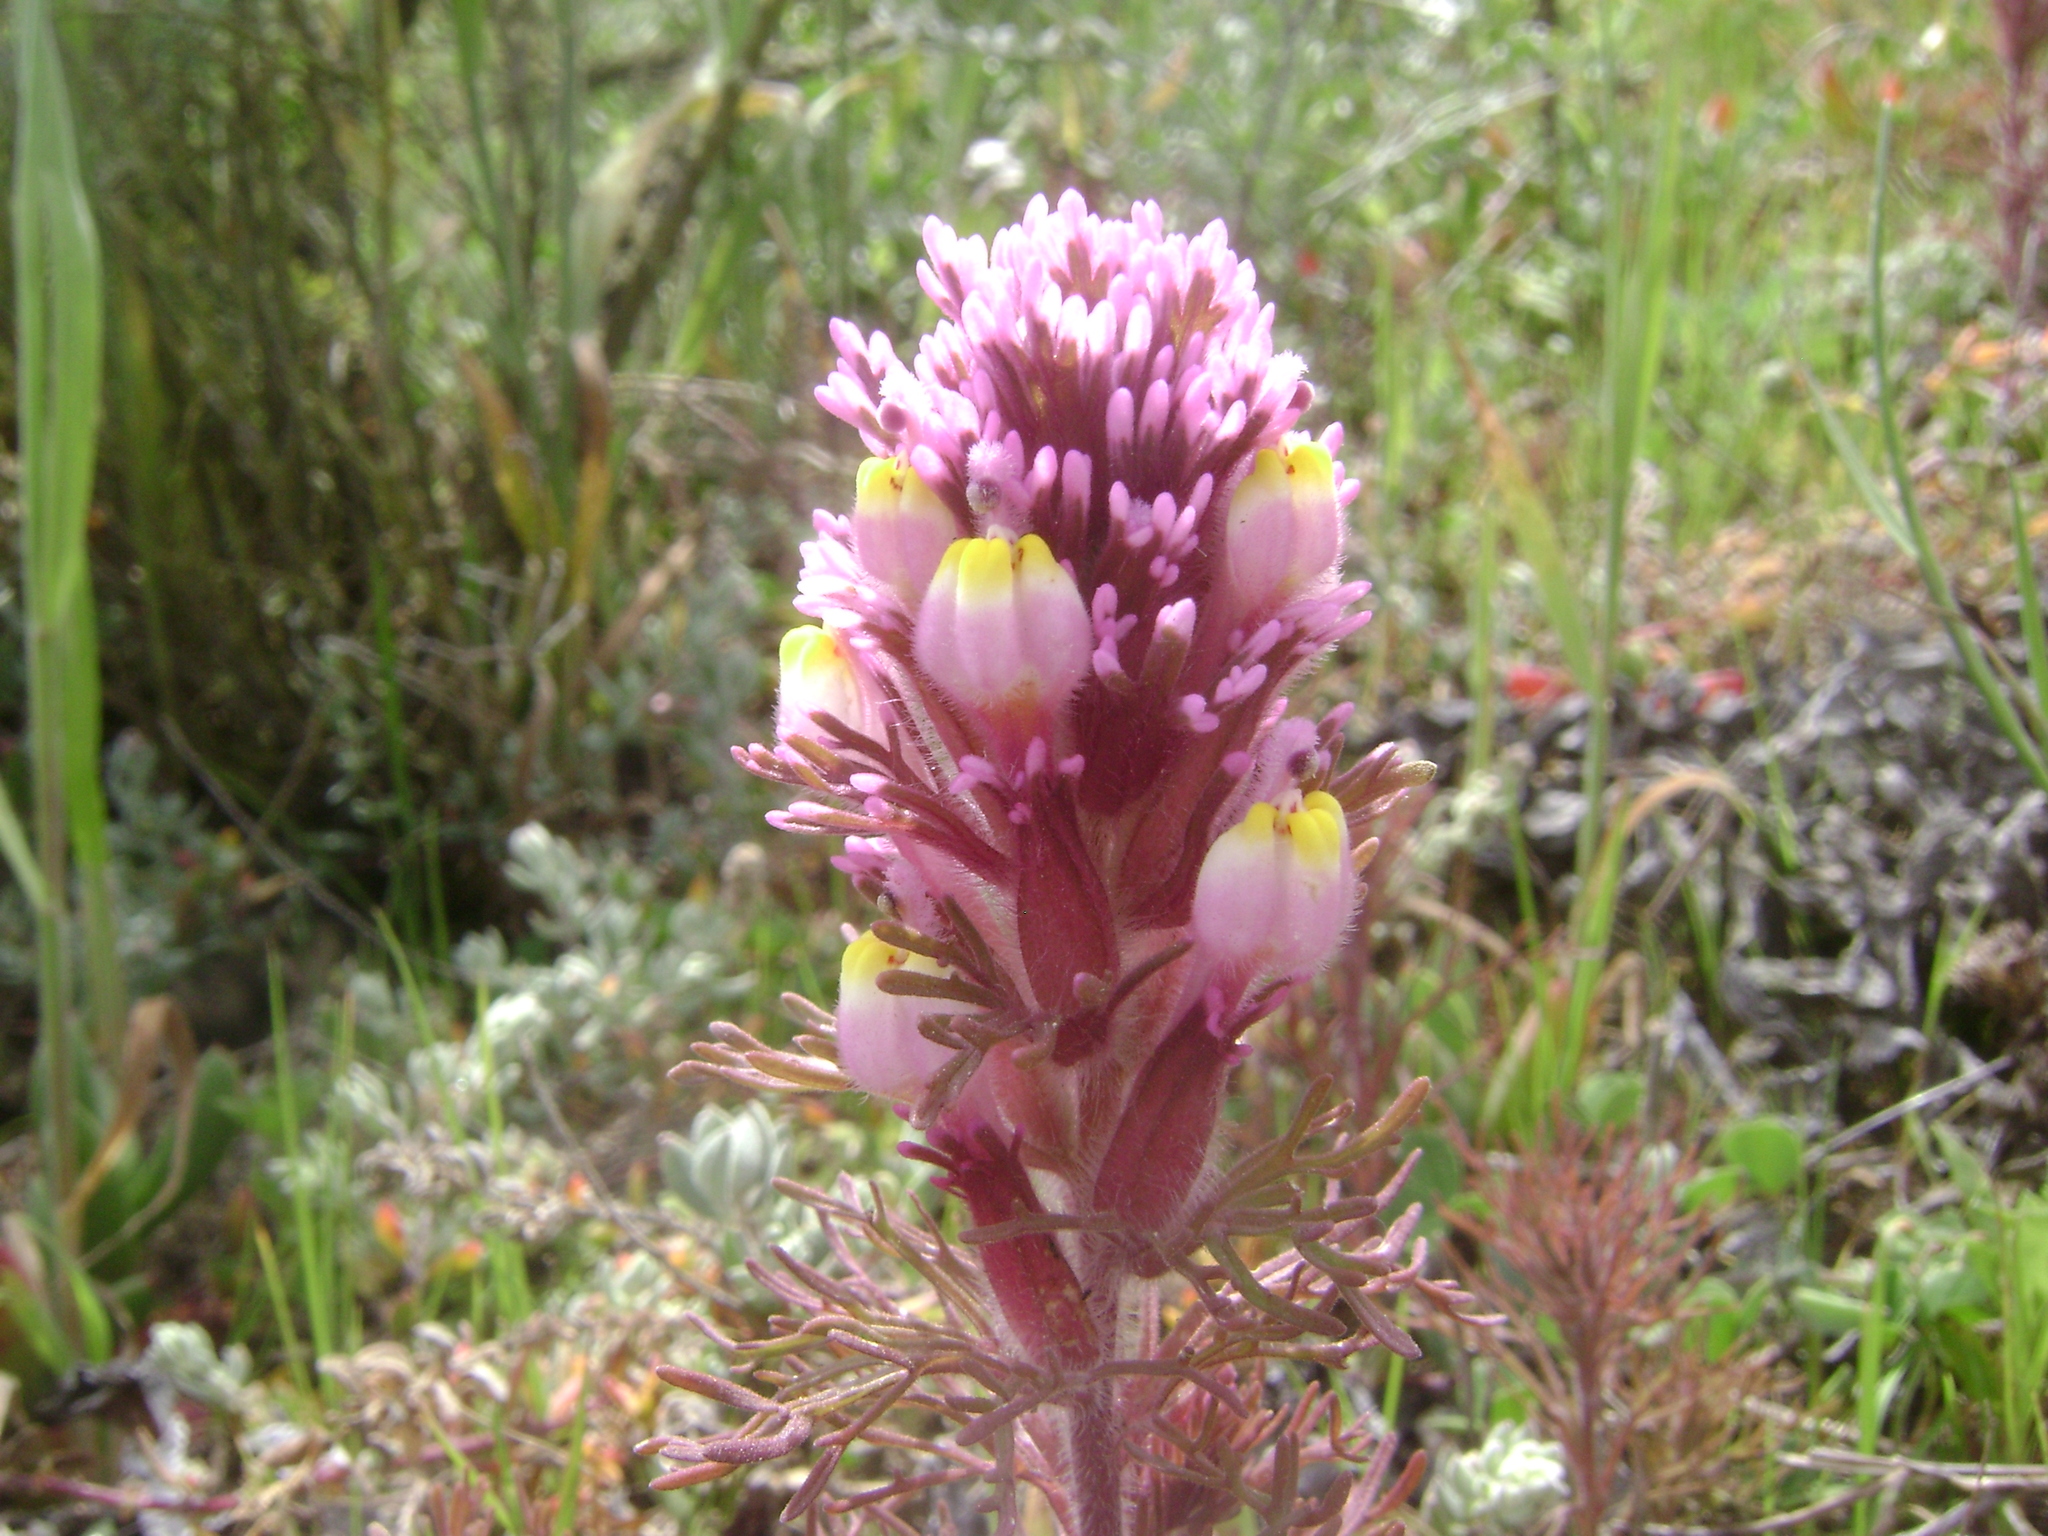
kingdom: Plantae
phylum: Tracheophyta
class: Magnoliopsida
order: Lamiales
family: Orobanchaceae
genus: Castilleja
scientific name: Castilleja exserta
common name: Purple owl-clover
